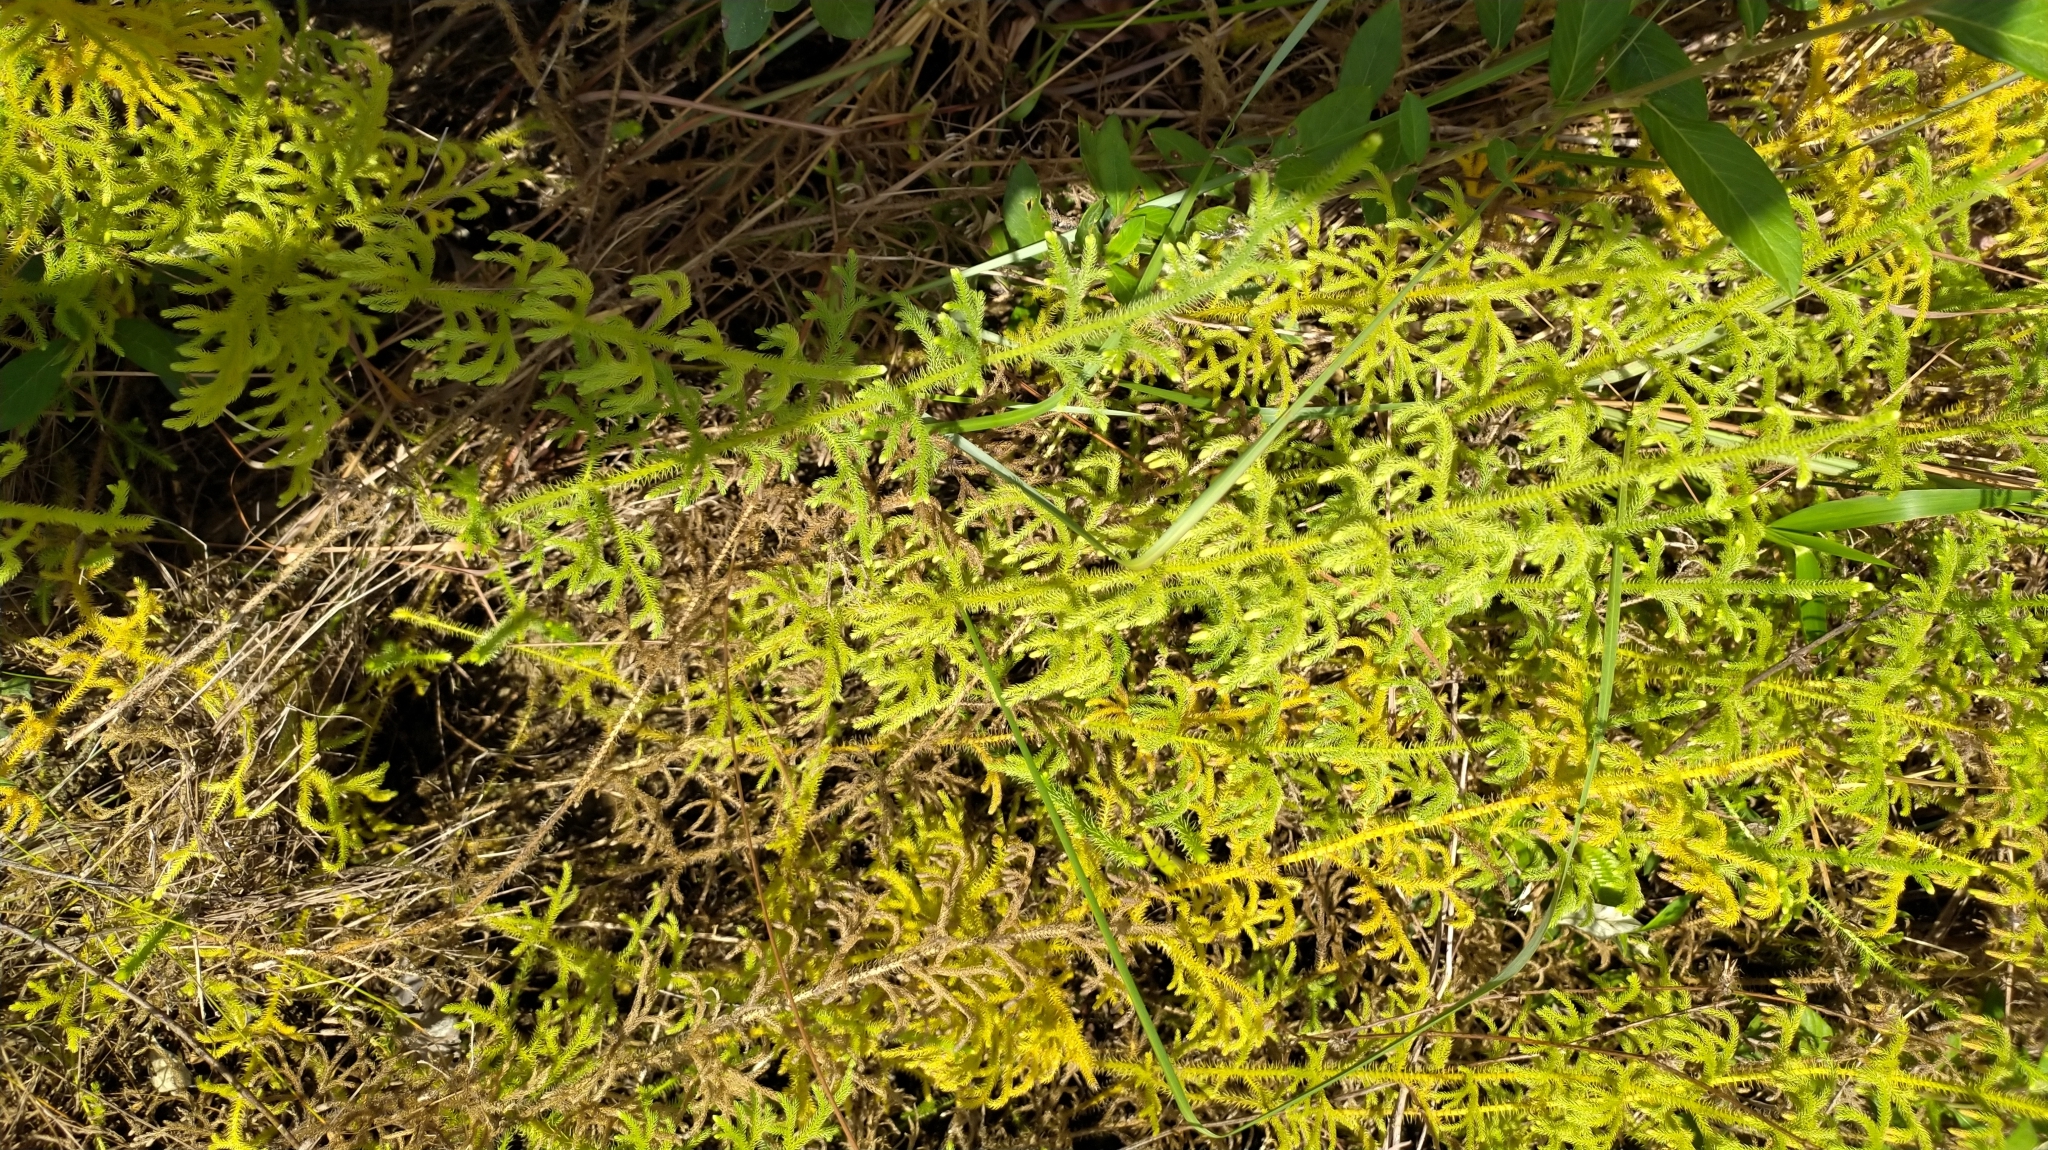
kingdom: Plantae
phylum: Tracheophyta
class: Lycopodiopsida
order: Lycopodiales
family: Lycopodiaceae
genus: Palhinhaea
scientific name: Palhinhaea cernua
